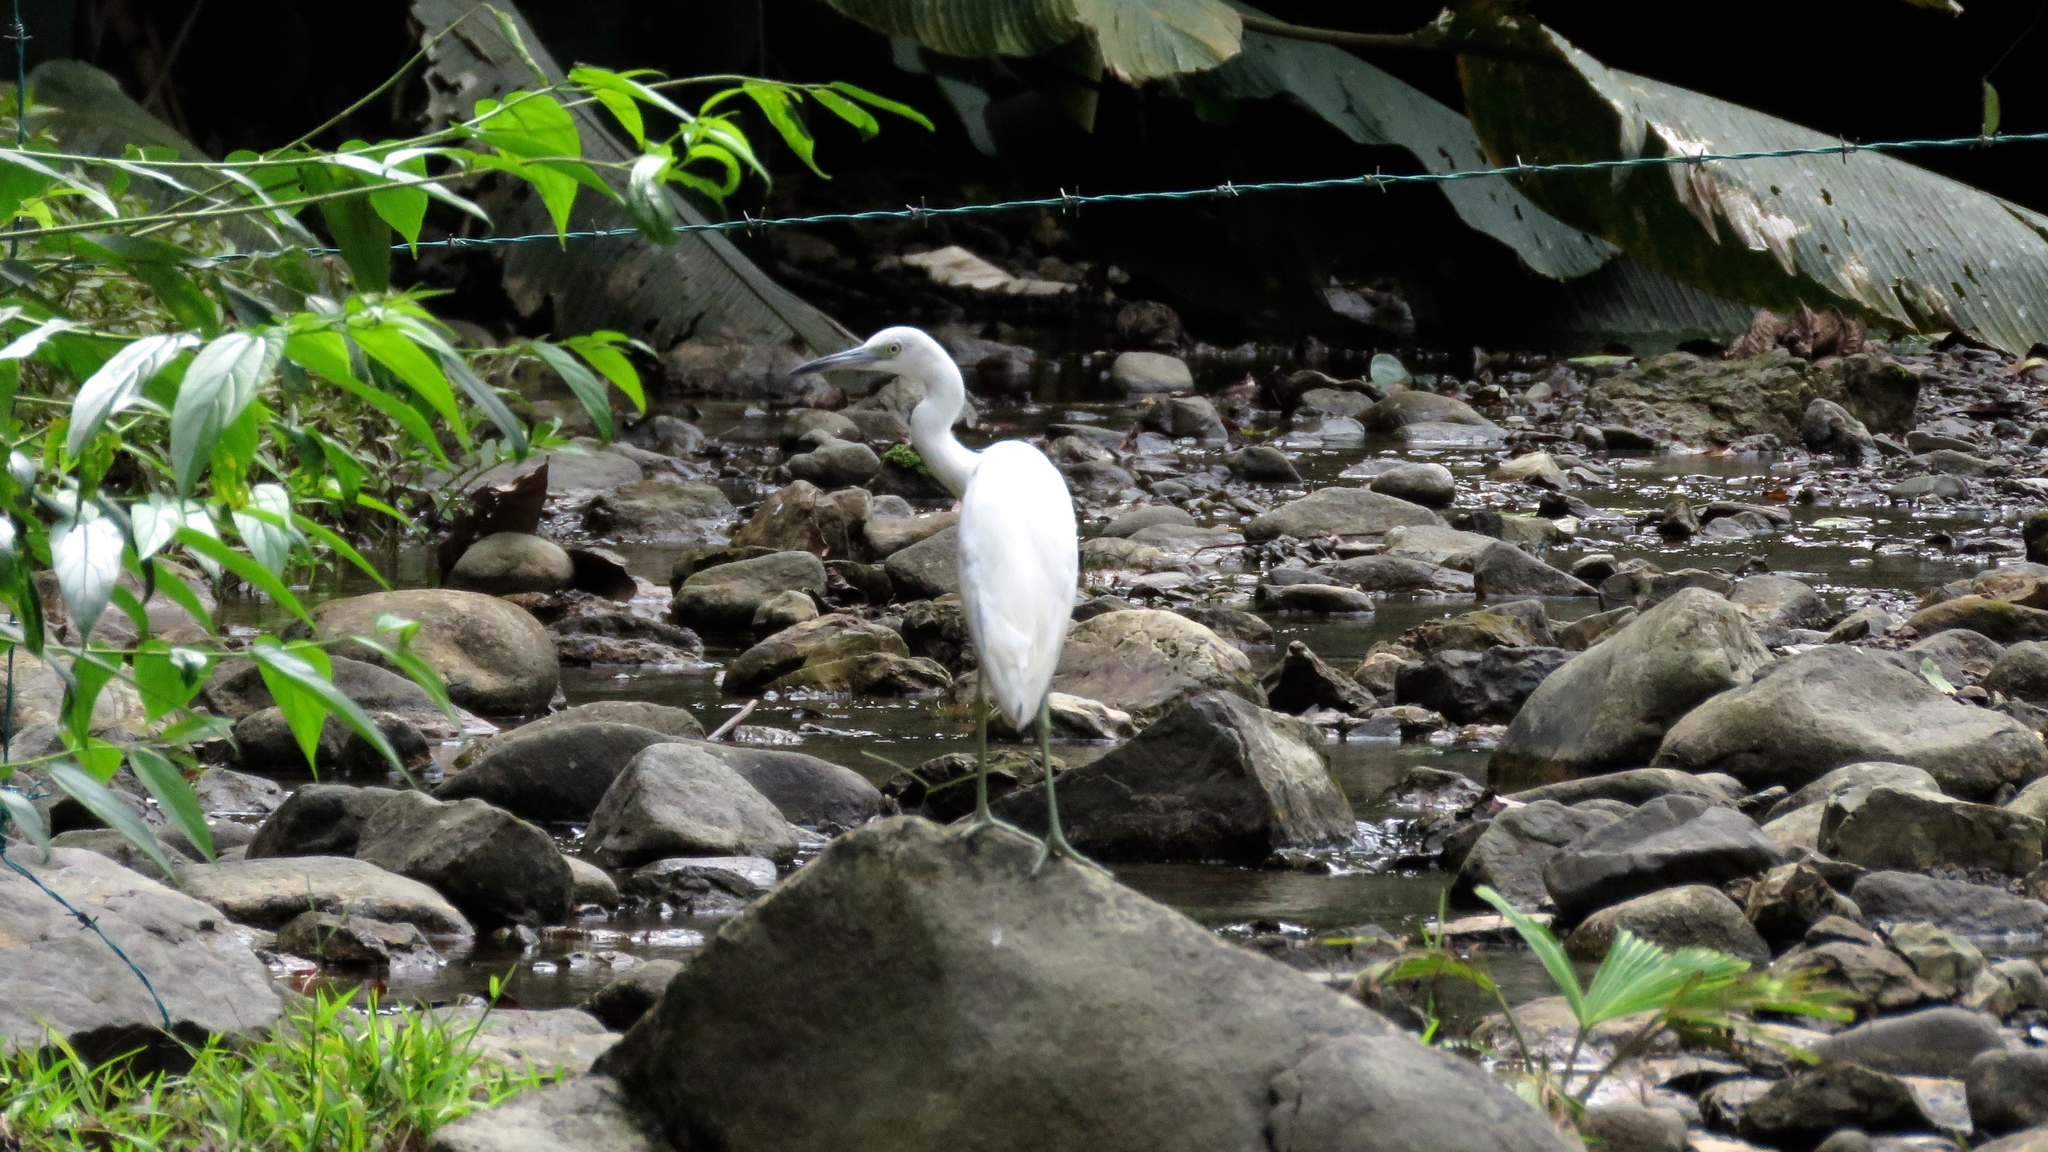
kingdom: Animalia
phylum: Chordata
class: Aves
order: Pelecaniformes
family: Ardeidae
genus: Egretta
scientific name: Egretta caerulea
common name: Little blue heron
